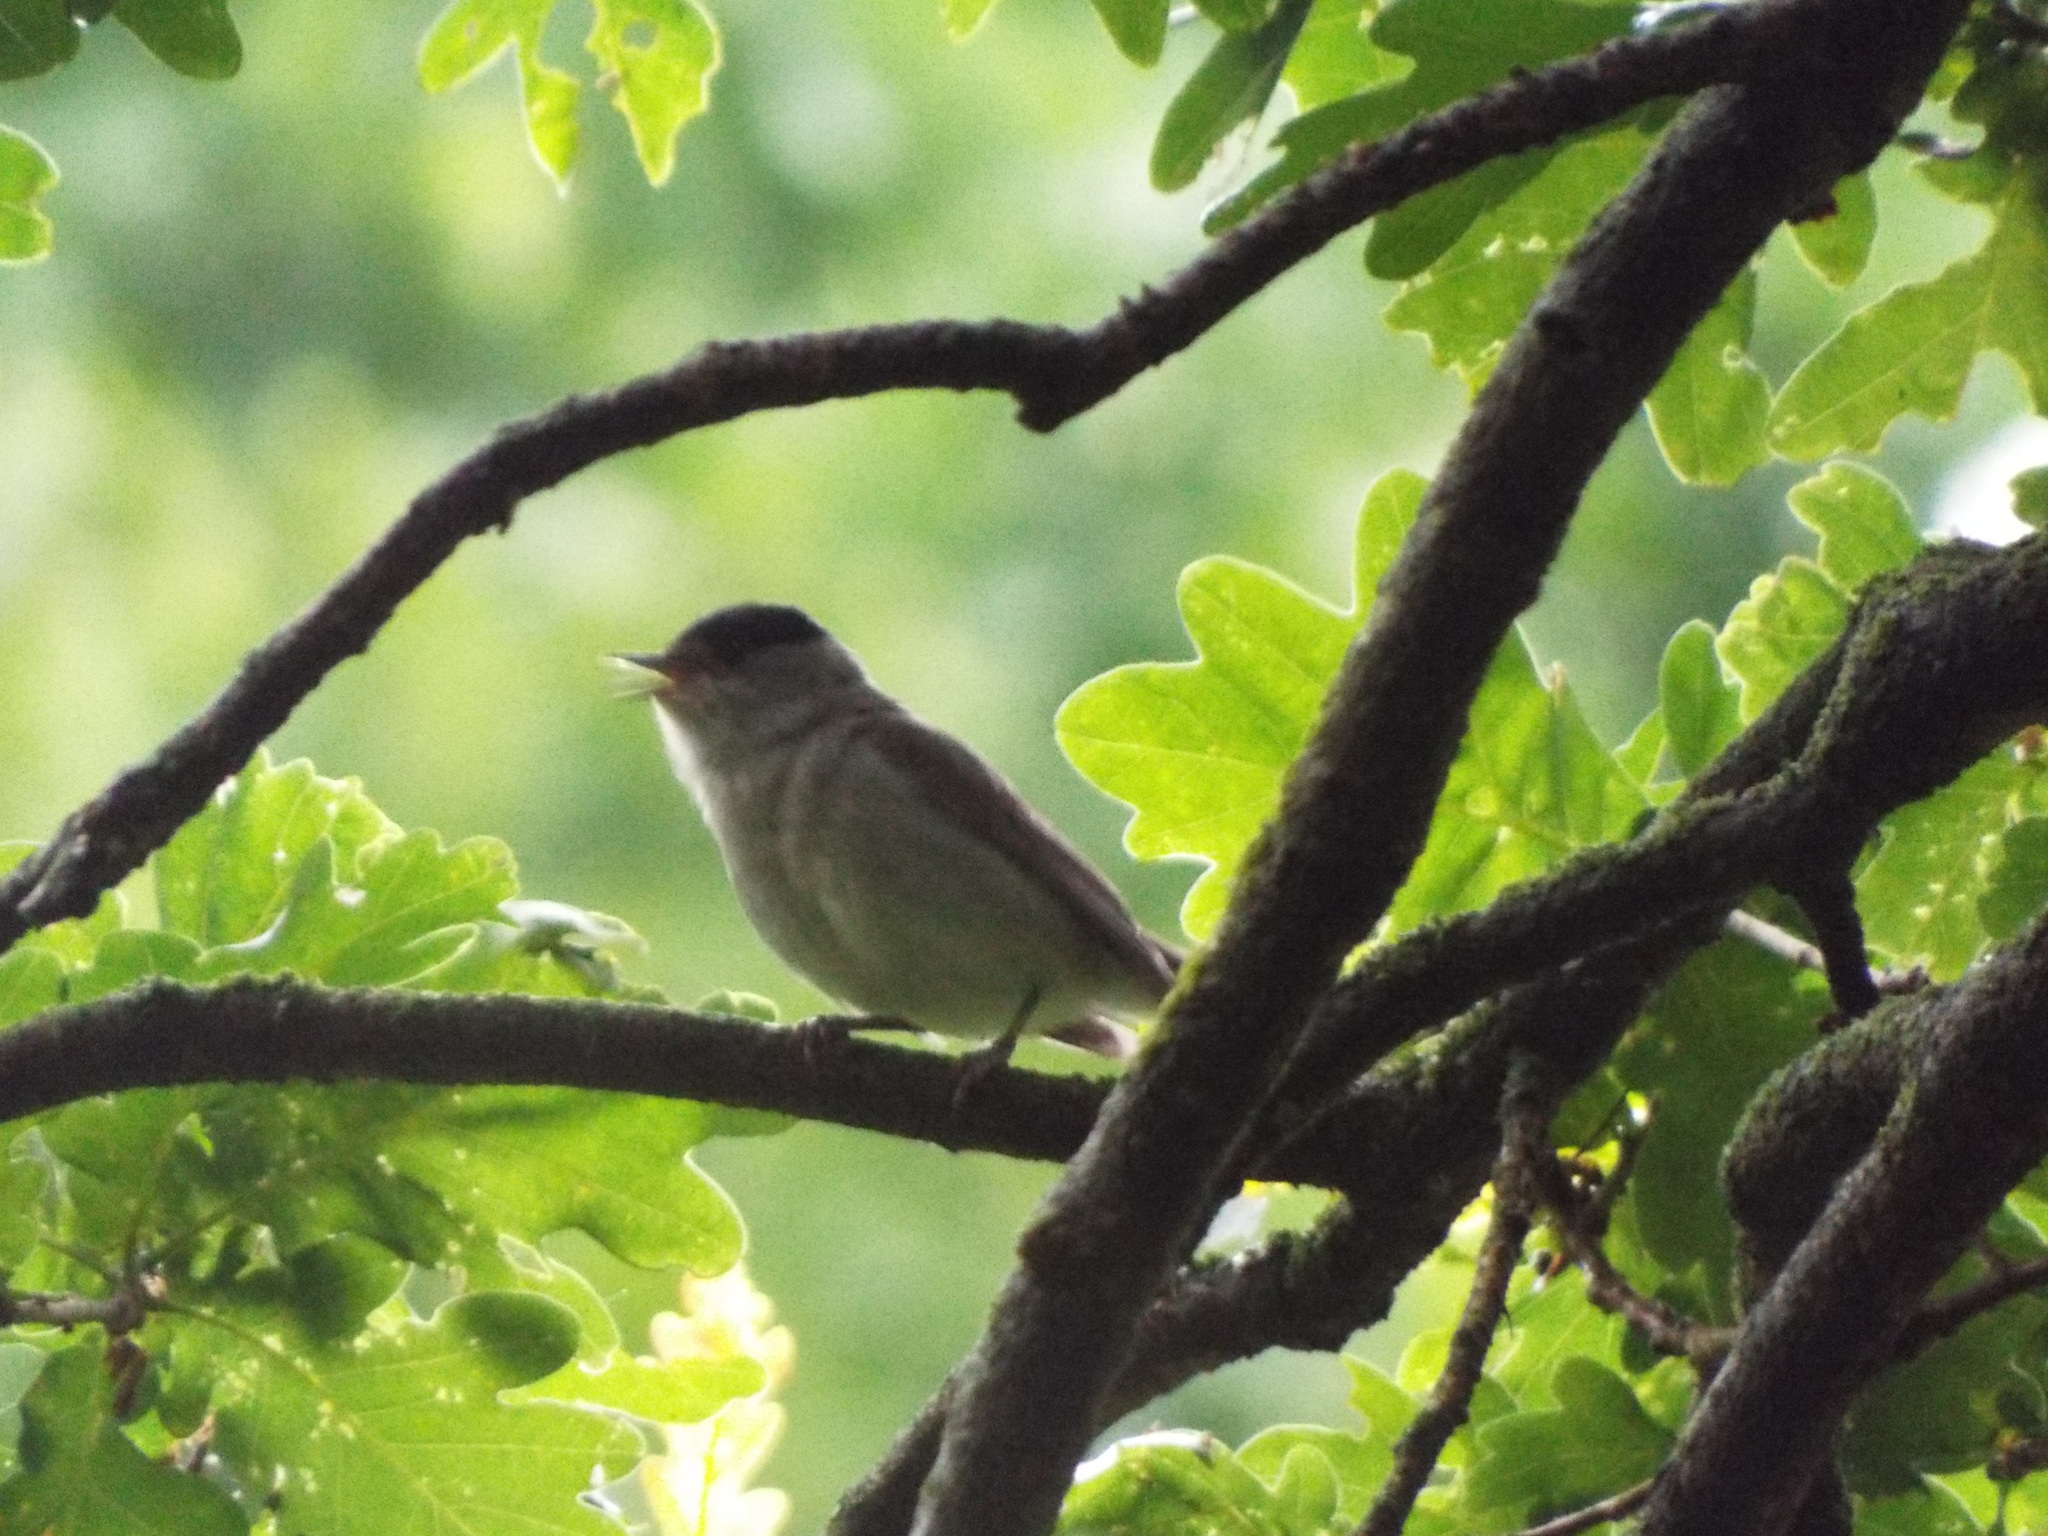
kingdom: Animalia
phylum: Chordata
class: Aves
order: Passeriformes
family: Sylviidae
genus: Sylvia
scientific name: Sylvia atricapilla
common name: Eurasian blackcap
